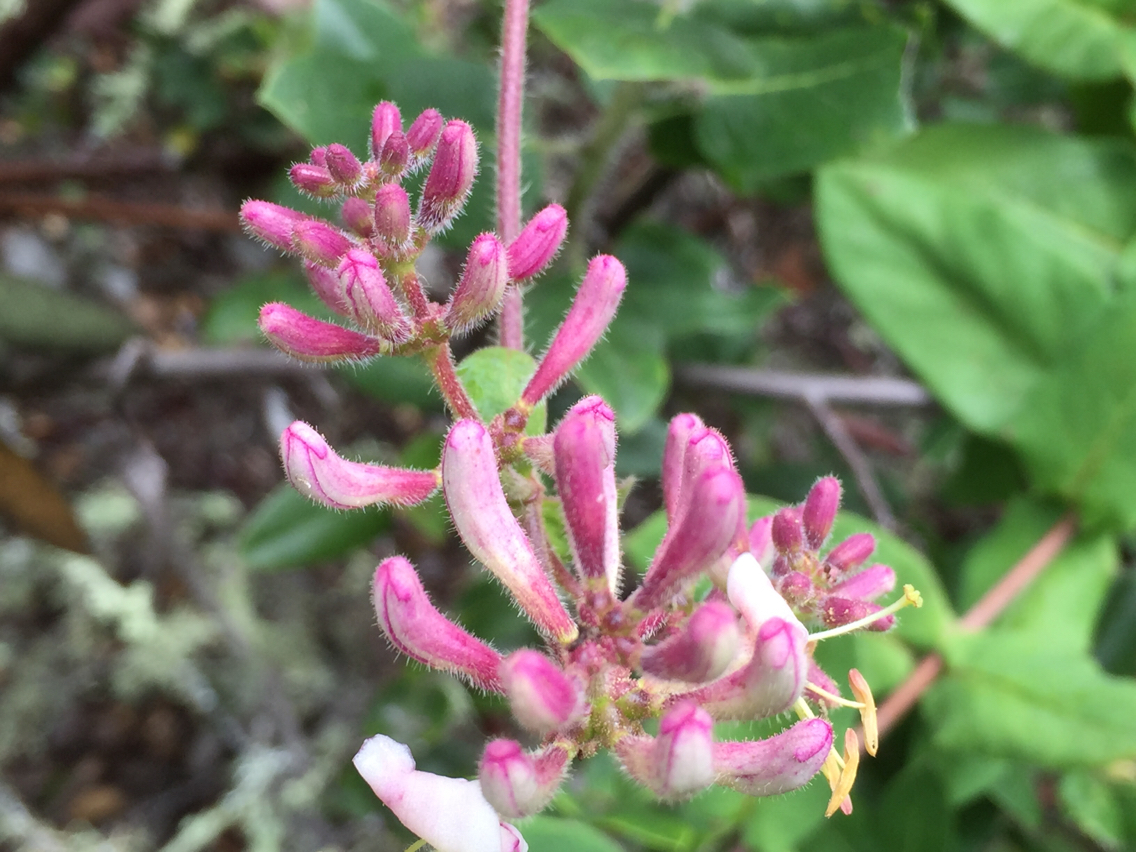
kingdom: Plantae
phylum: Tracheophyta
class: Magnoliopsida
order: Dipsacales
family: Caprifoliaceae
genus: Lonicera
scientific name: Lonicera hispidula
